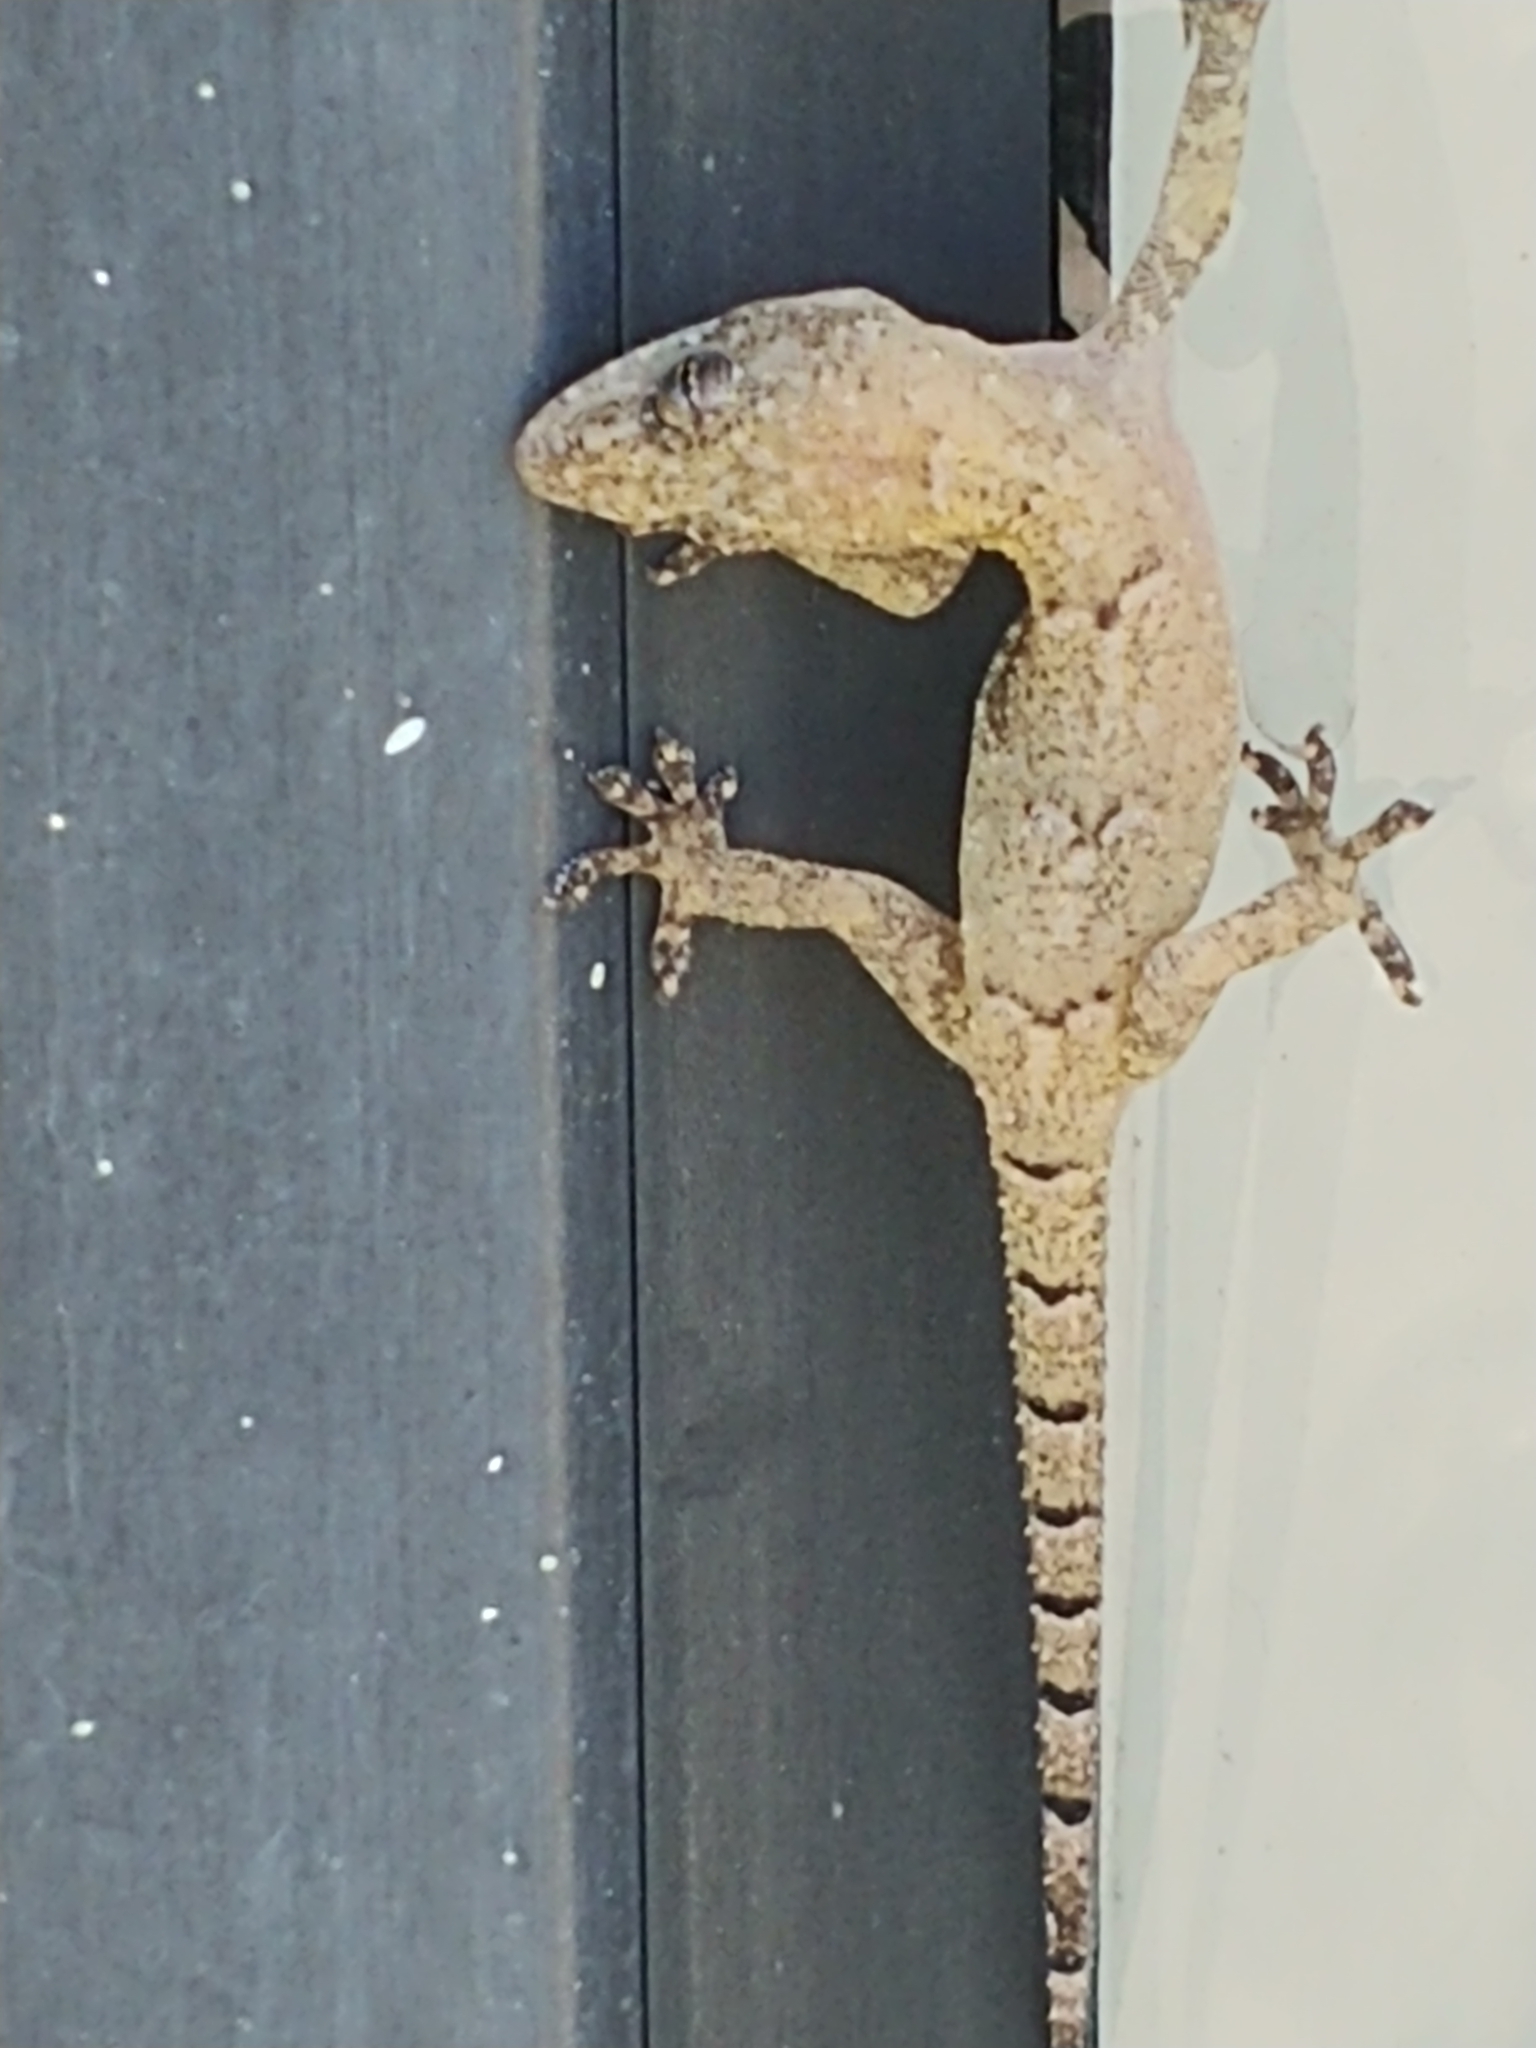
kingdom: Animalia
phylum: Chordata
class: Squamata
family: Gekkonidae
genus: Hemidactylus
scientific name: Hemidactylus mabouia
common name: House gecko
